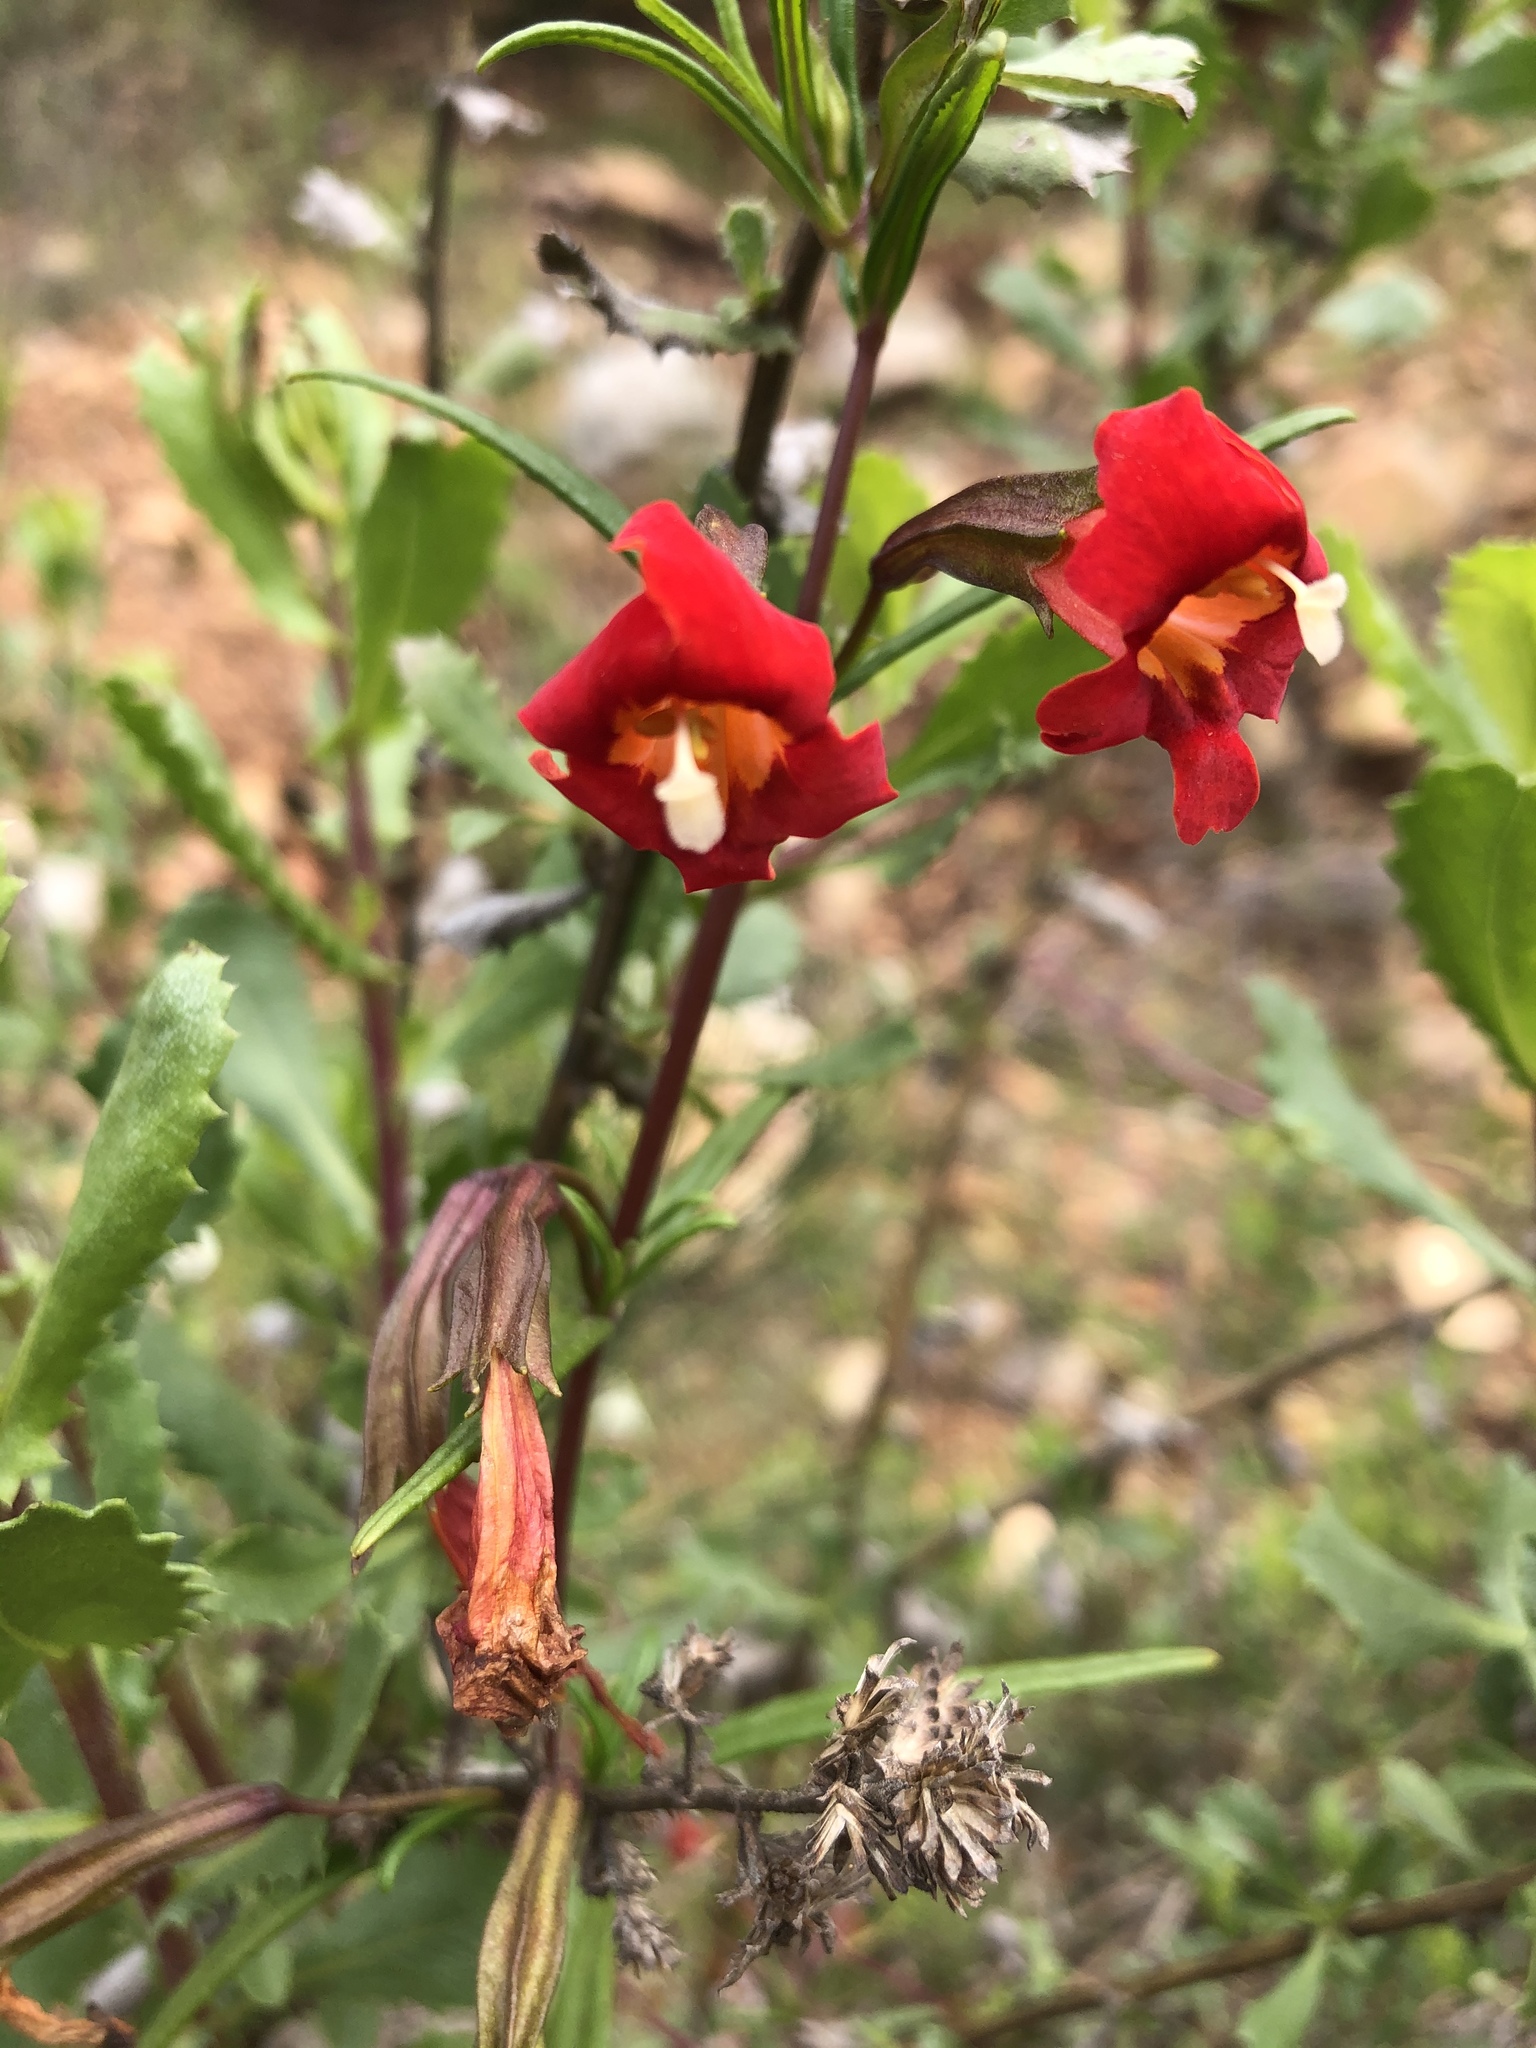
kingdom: Plantae
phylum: Tracheophyta
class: Magnoliopsida
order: Lamiales
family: Phrymaceae
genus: Diplacus
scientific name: Diplacus puniceus
